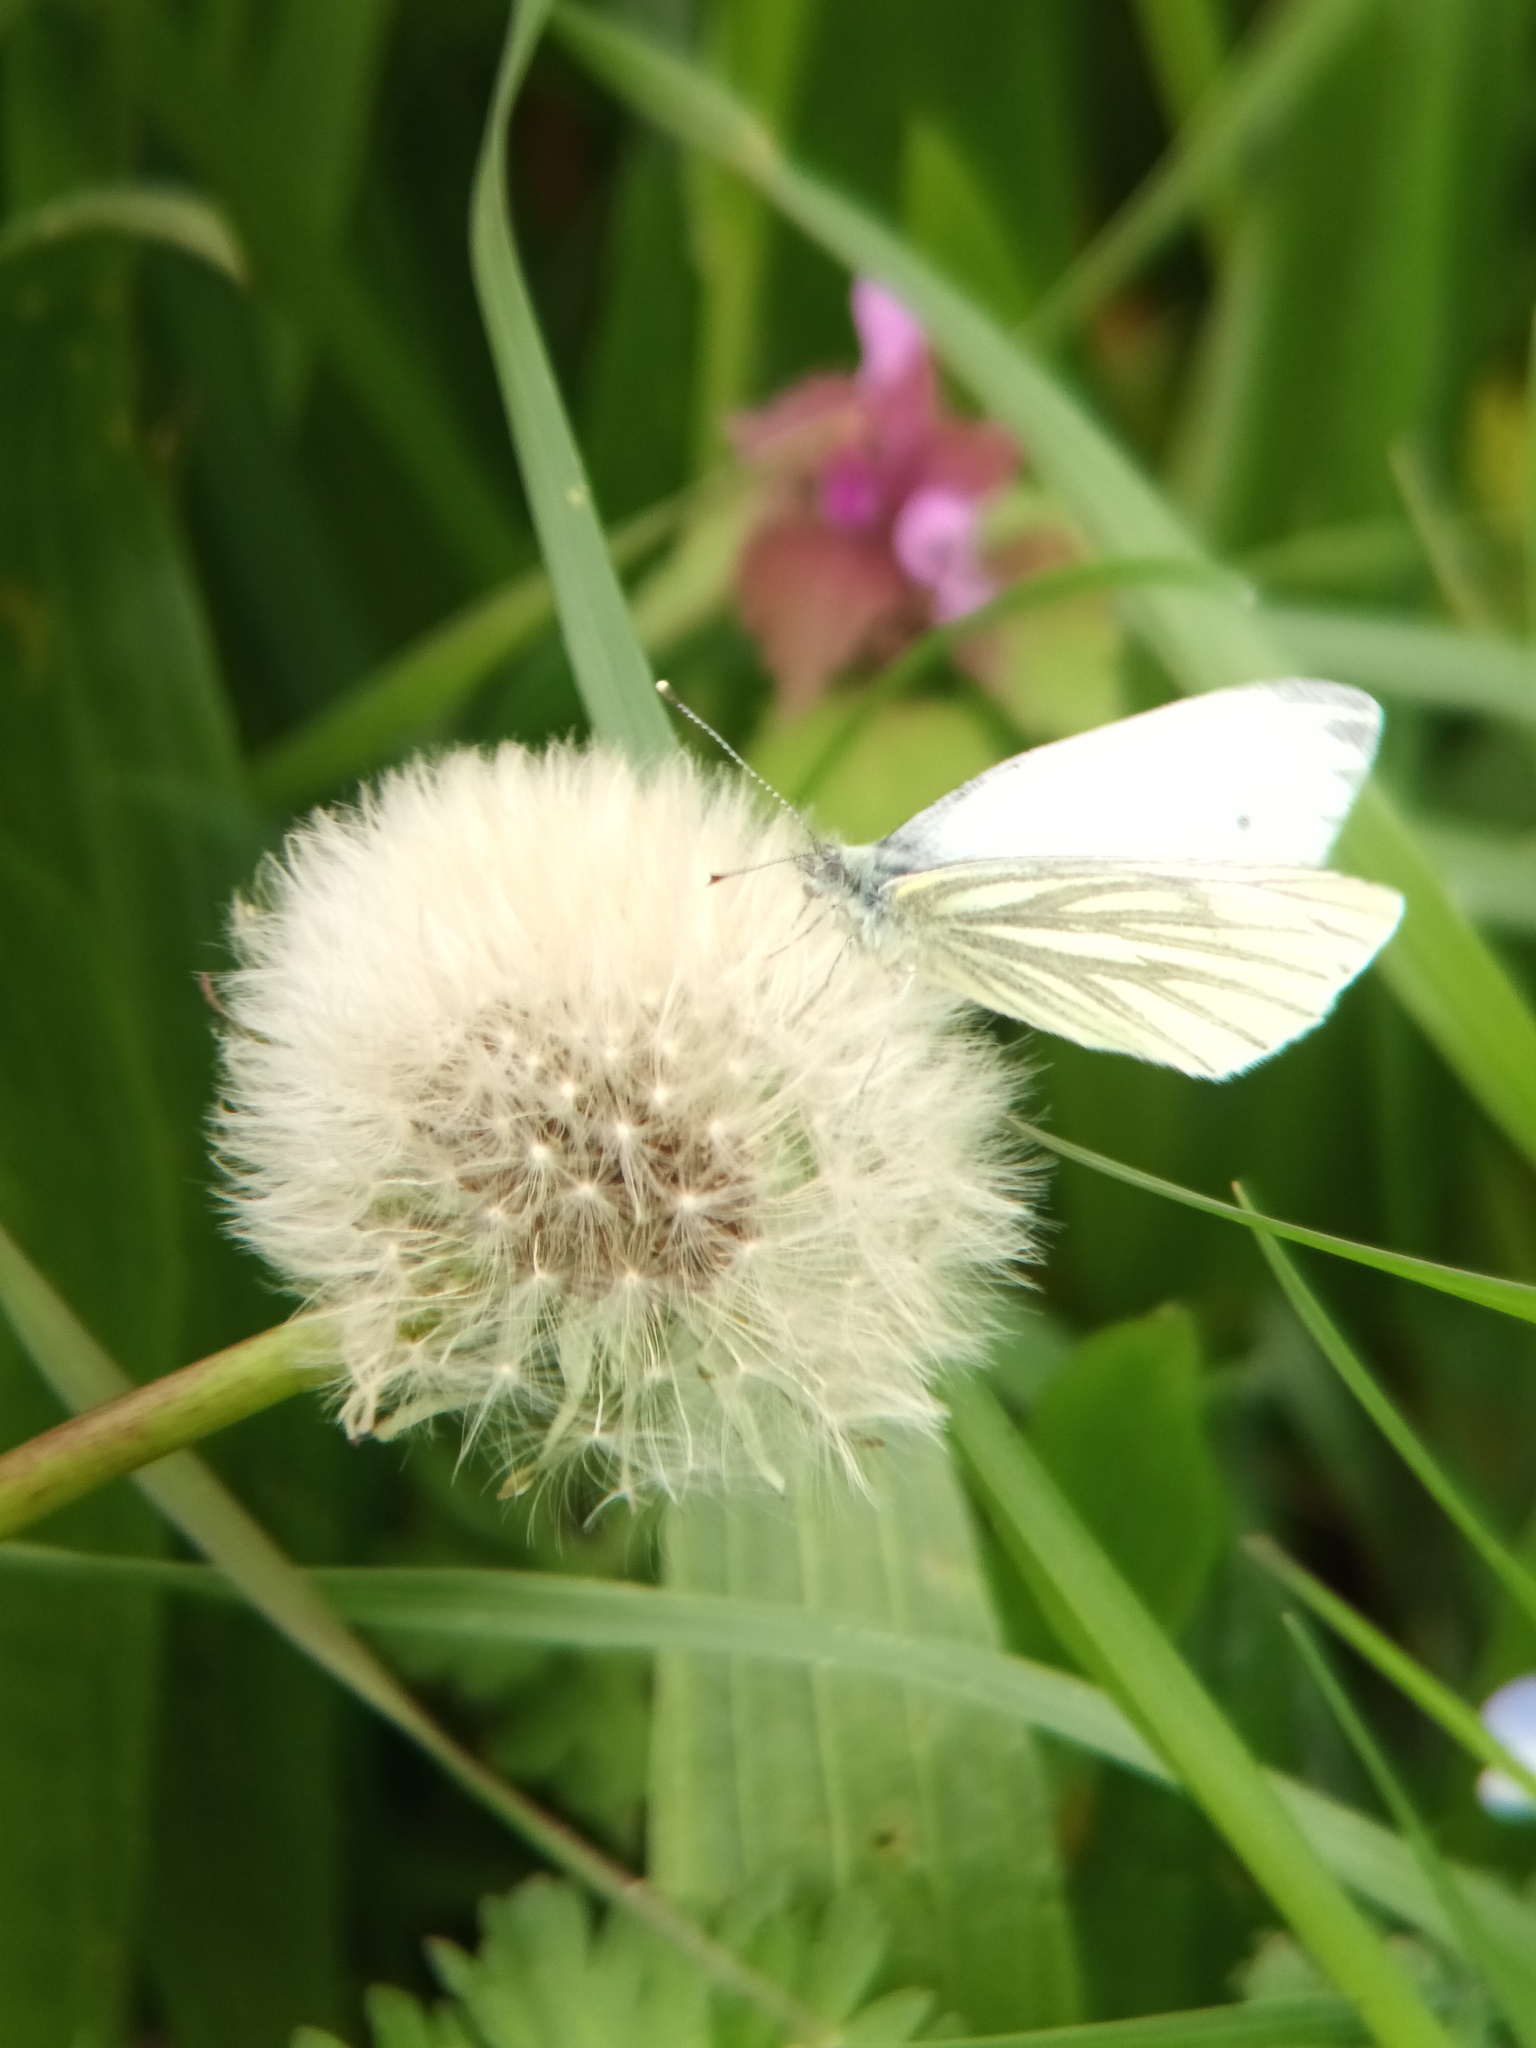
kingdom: Animalia
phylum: Arthropoda
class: Insecta
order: Lepidoptera
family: Pieridae
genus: Pieris
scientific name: Pieris napi
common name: Green-veined white
